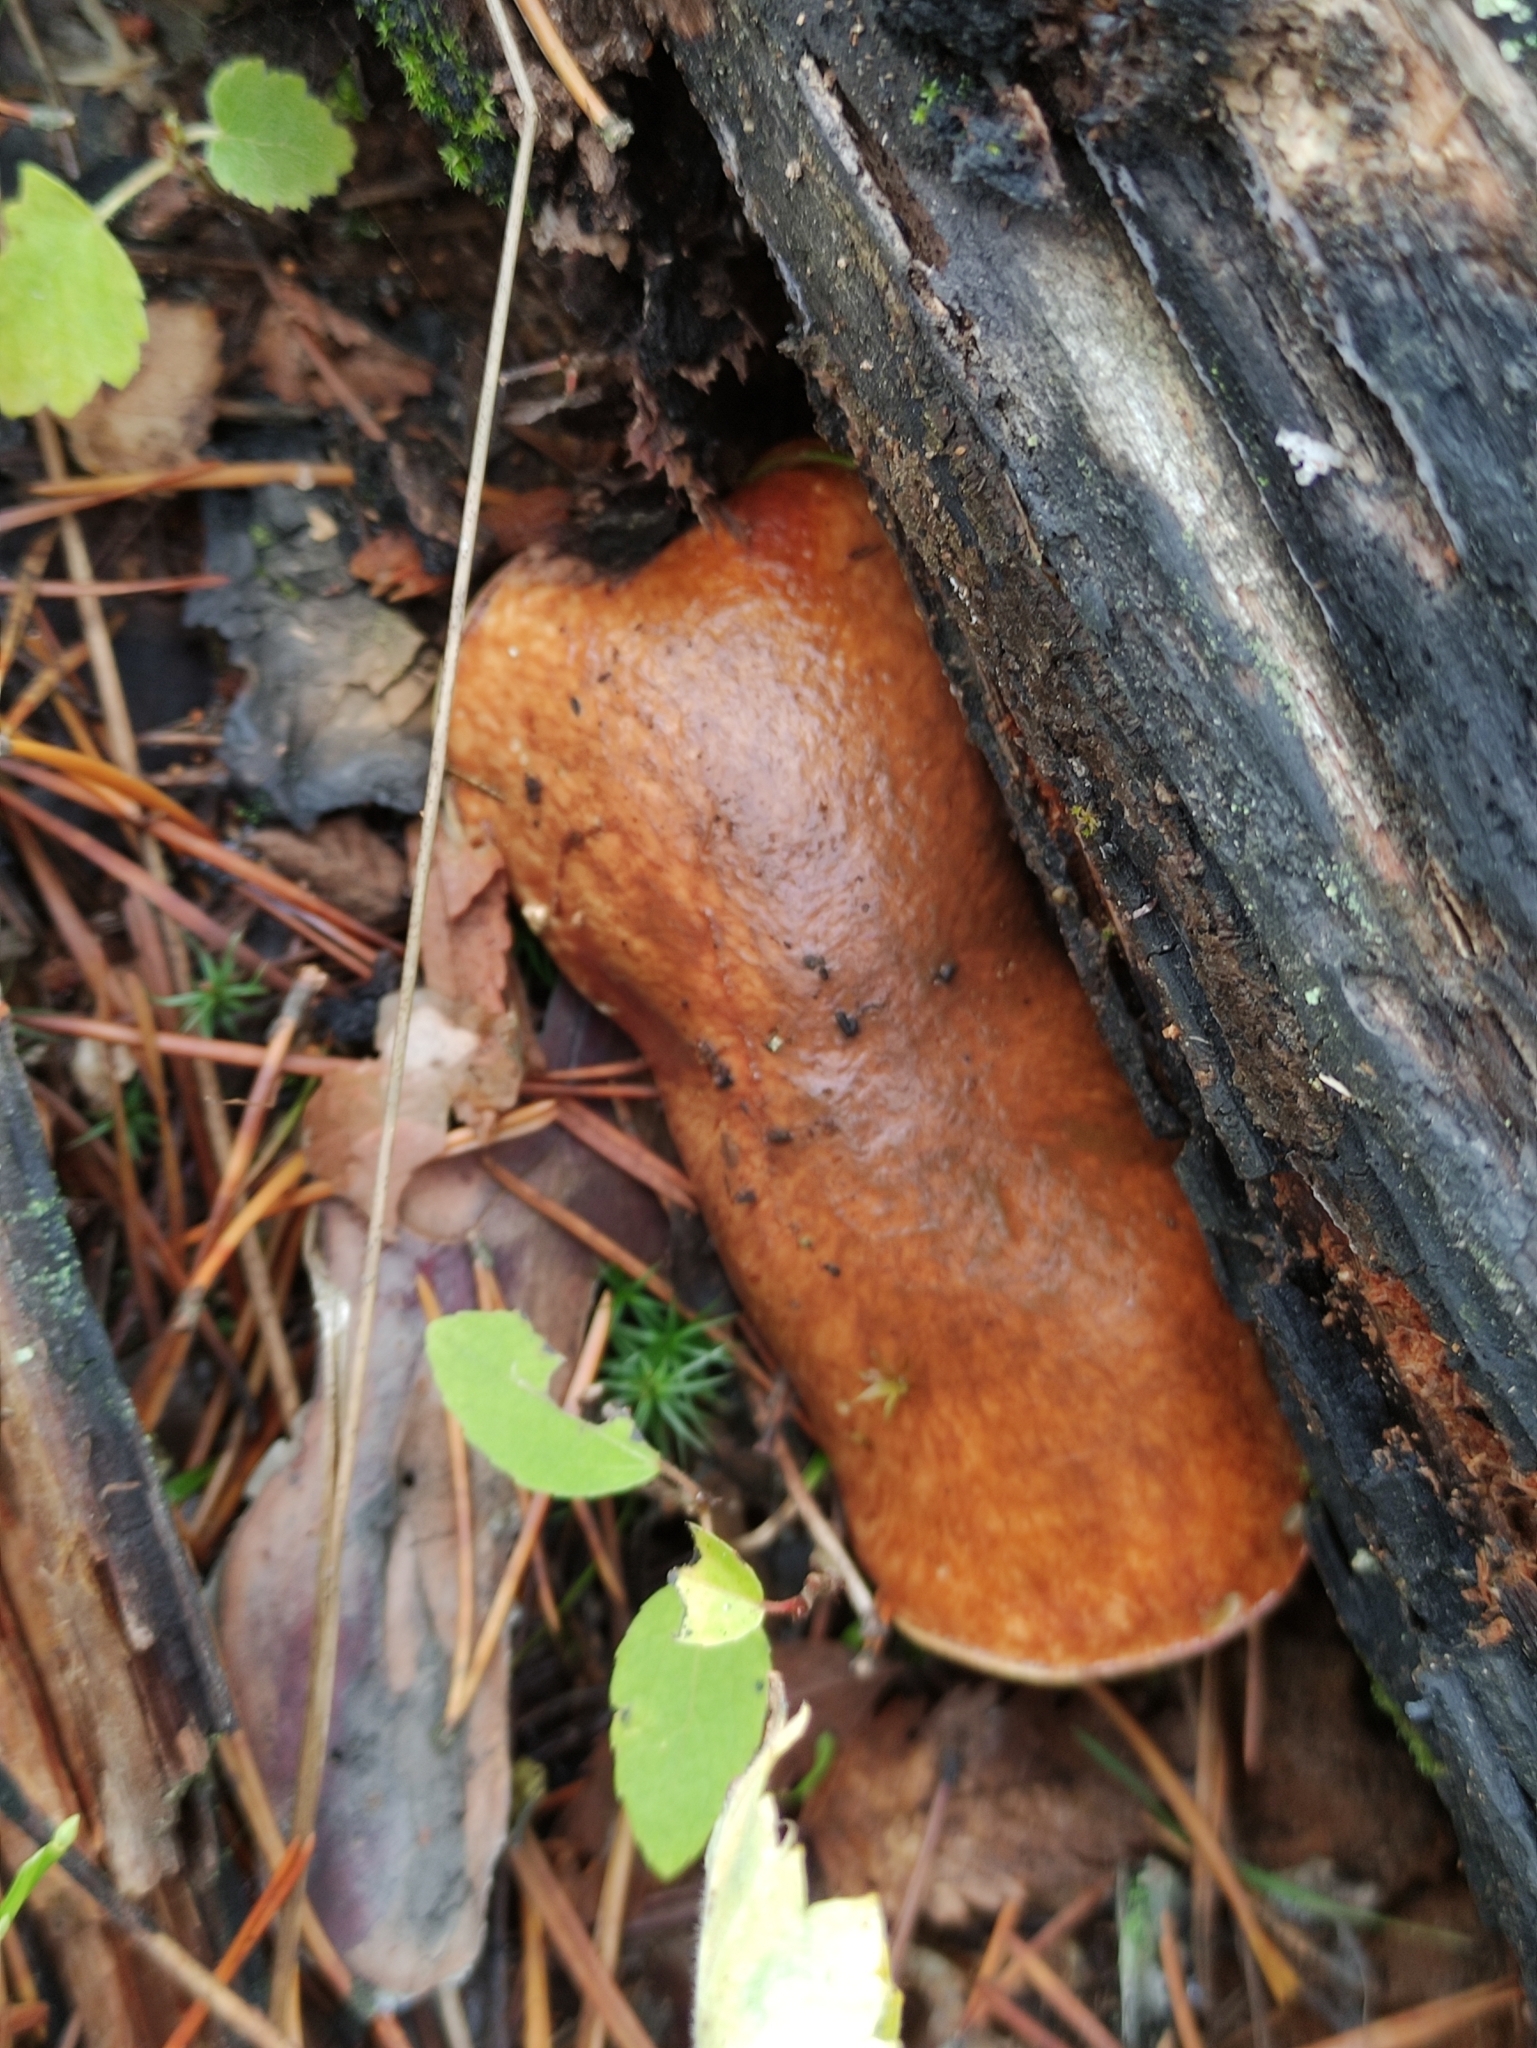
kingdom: Fungi
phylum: Basidiomycota
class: Agaricomycetes
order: Boletales
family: Suillaceae
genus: Suillus
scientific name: Suillus luteus
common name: Slippery jack
